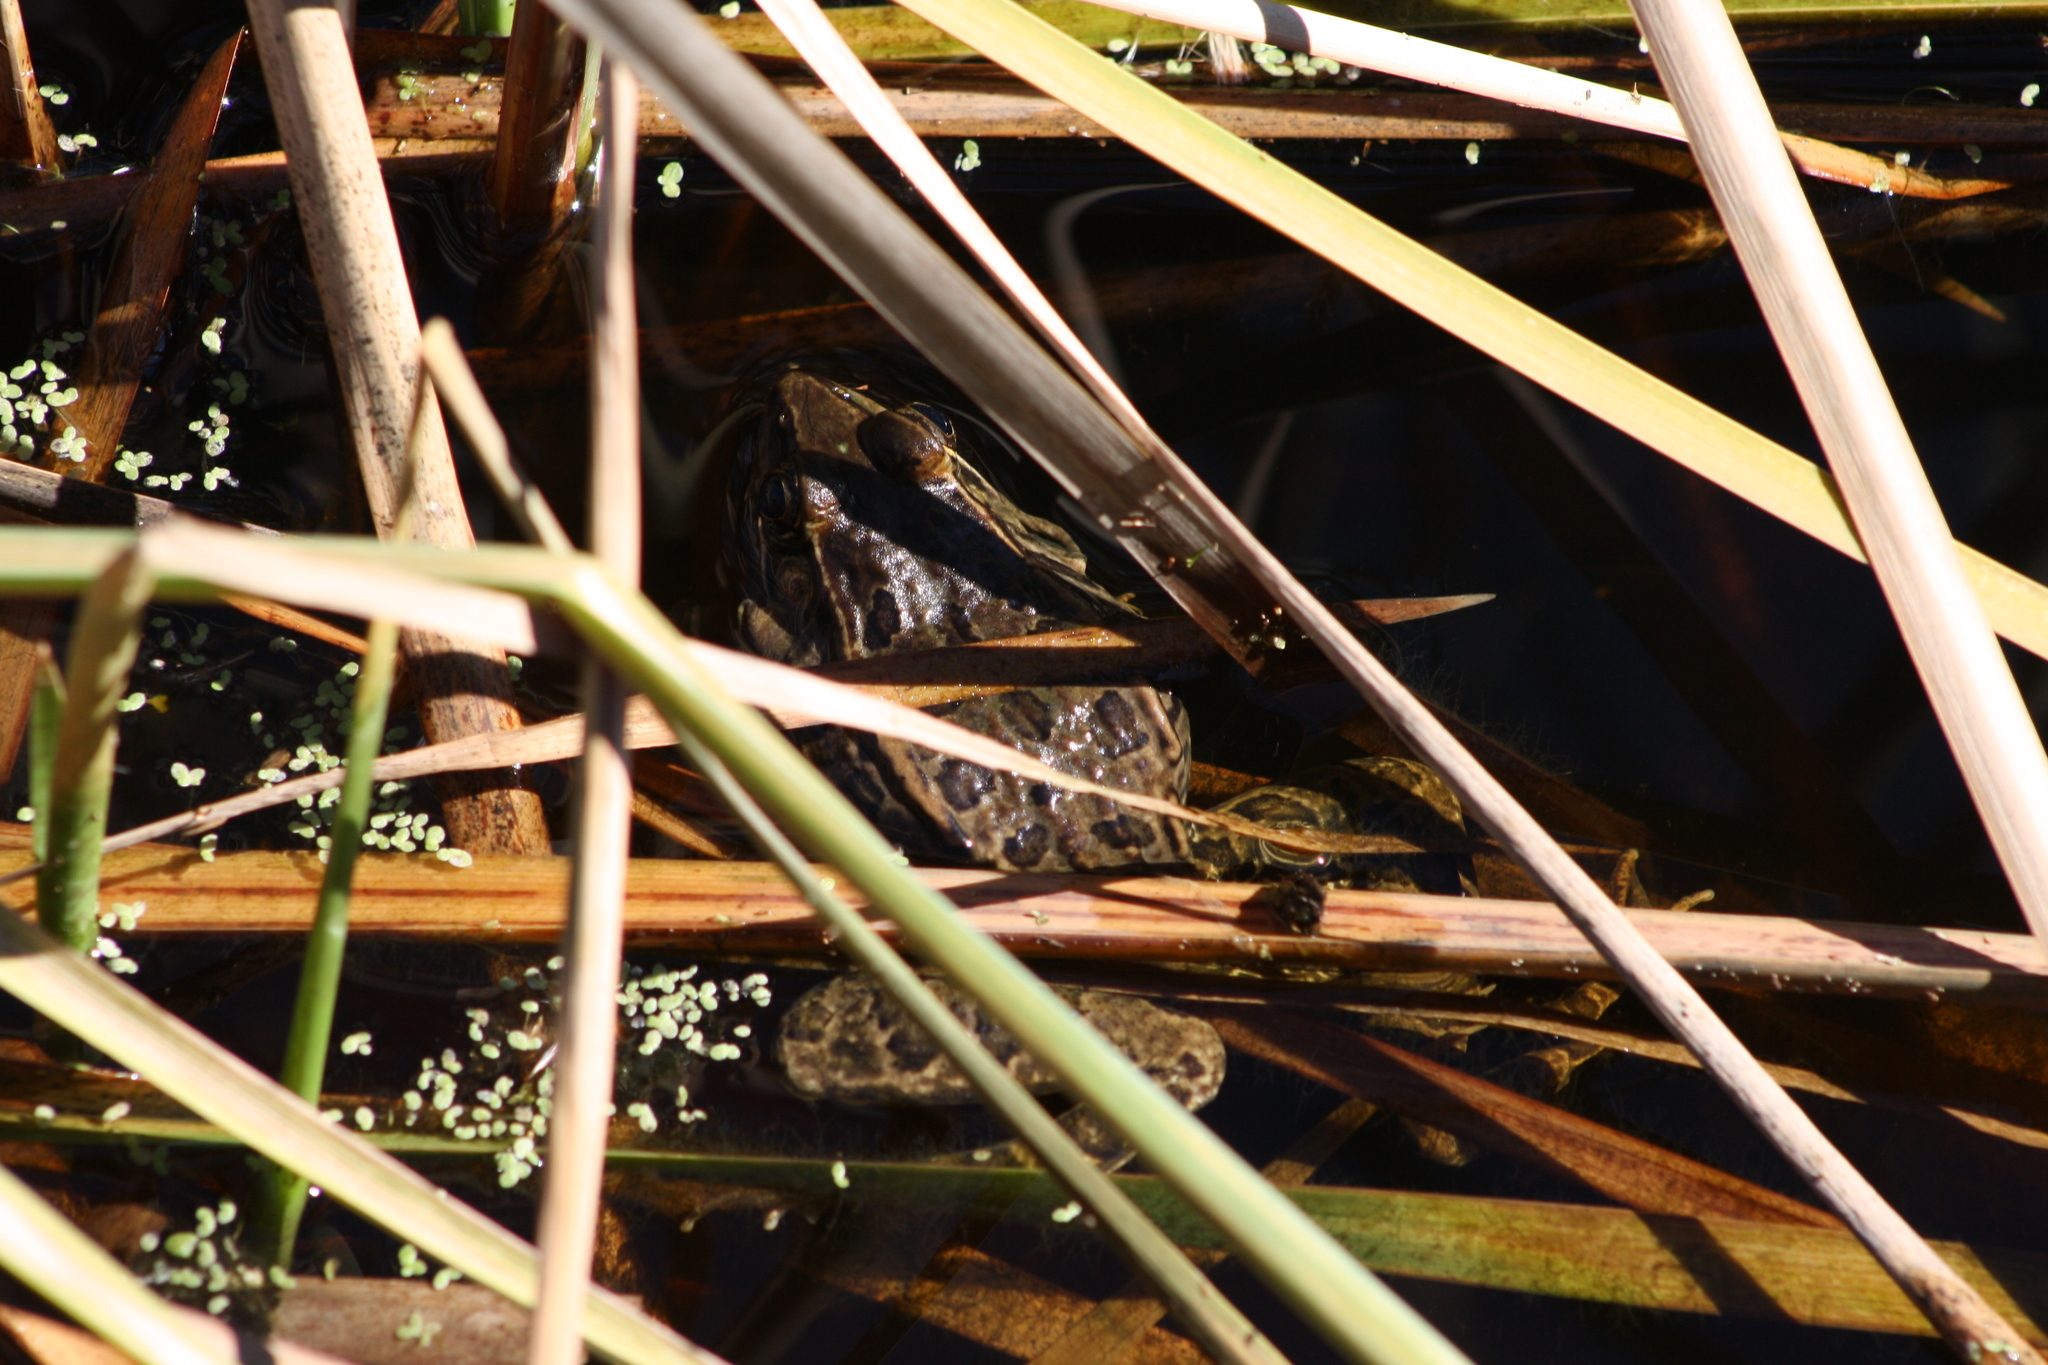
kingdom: Animalia
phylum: Chordata
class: Amphibia
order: Anura
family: Ranidae
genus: Lithobates
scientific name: Lithobates berlandieri
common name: Rio grande leopard frog
